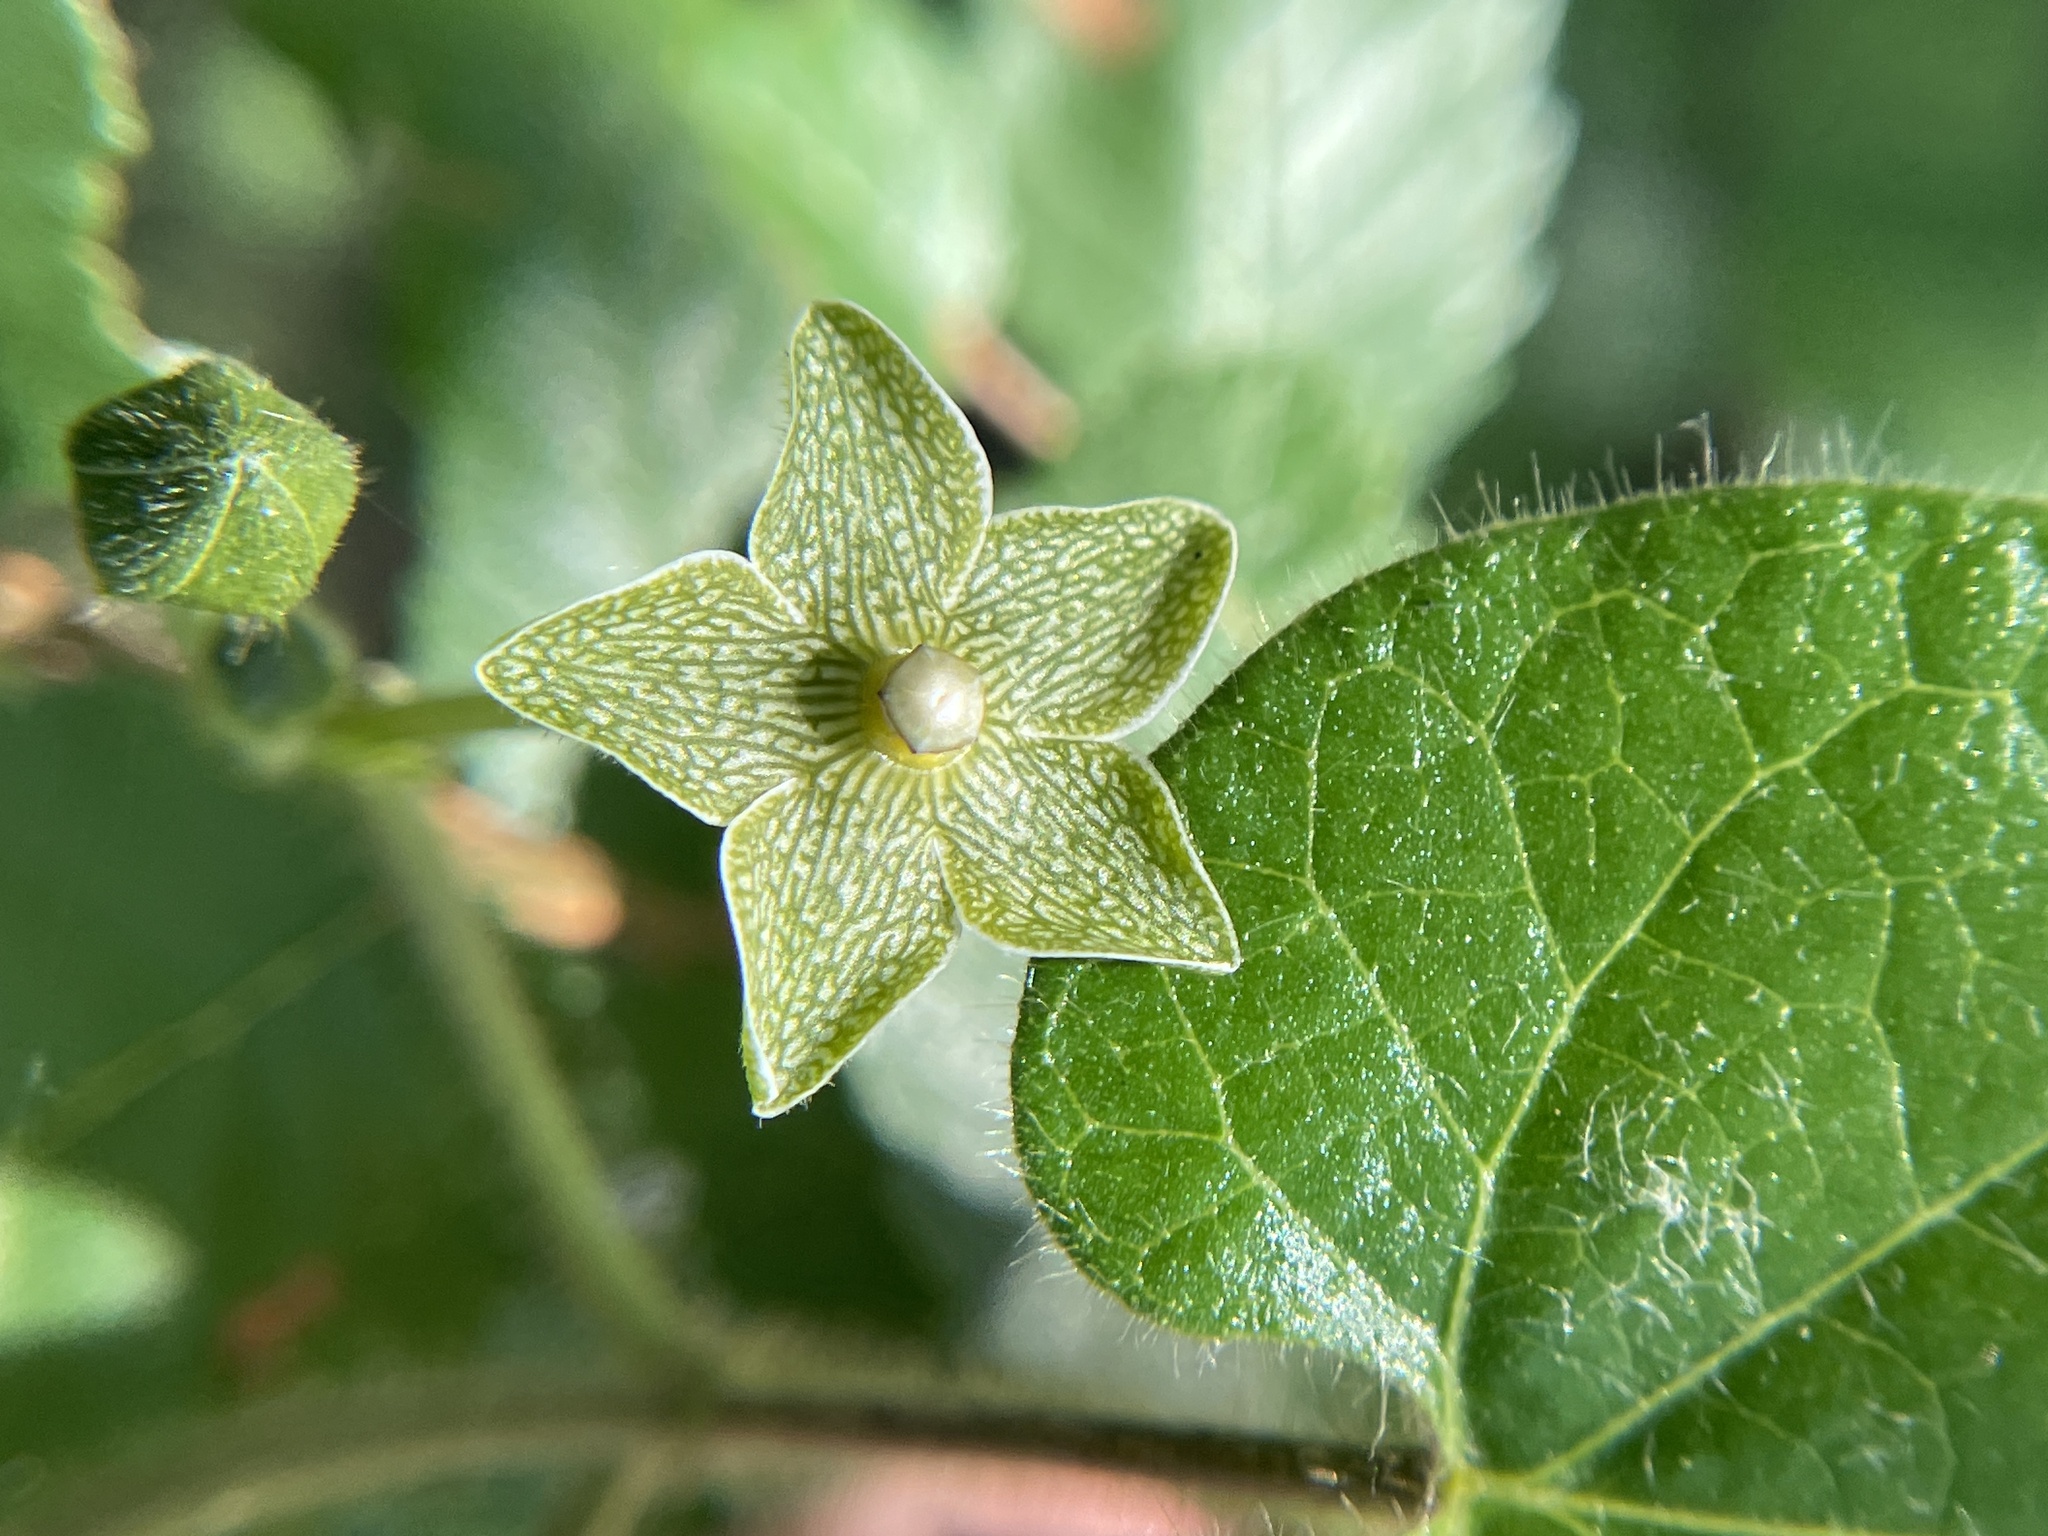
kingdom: Plantae
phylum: Tracheophyta
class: Magnoliopsida
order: Gentianales
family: Apocynaceae
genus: Dictyanthus
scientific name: Dictyanthus reticulatus
